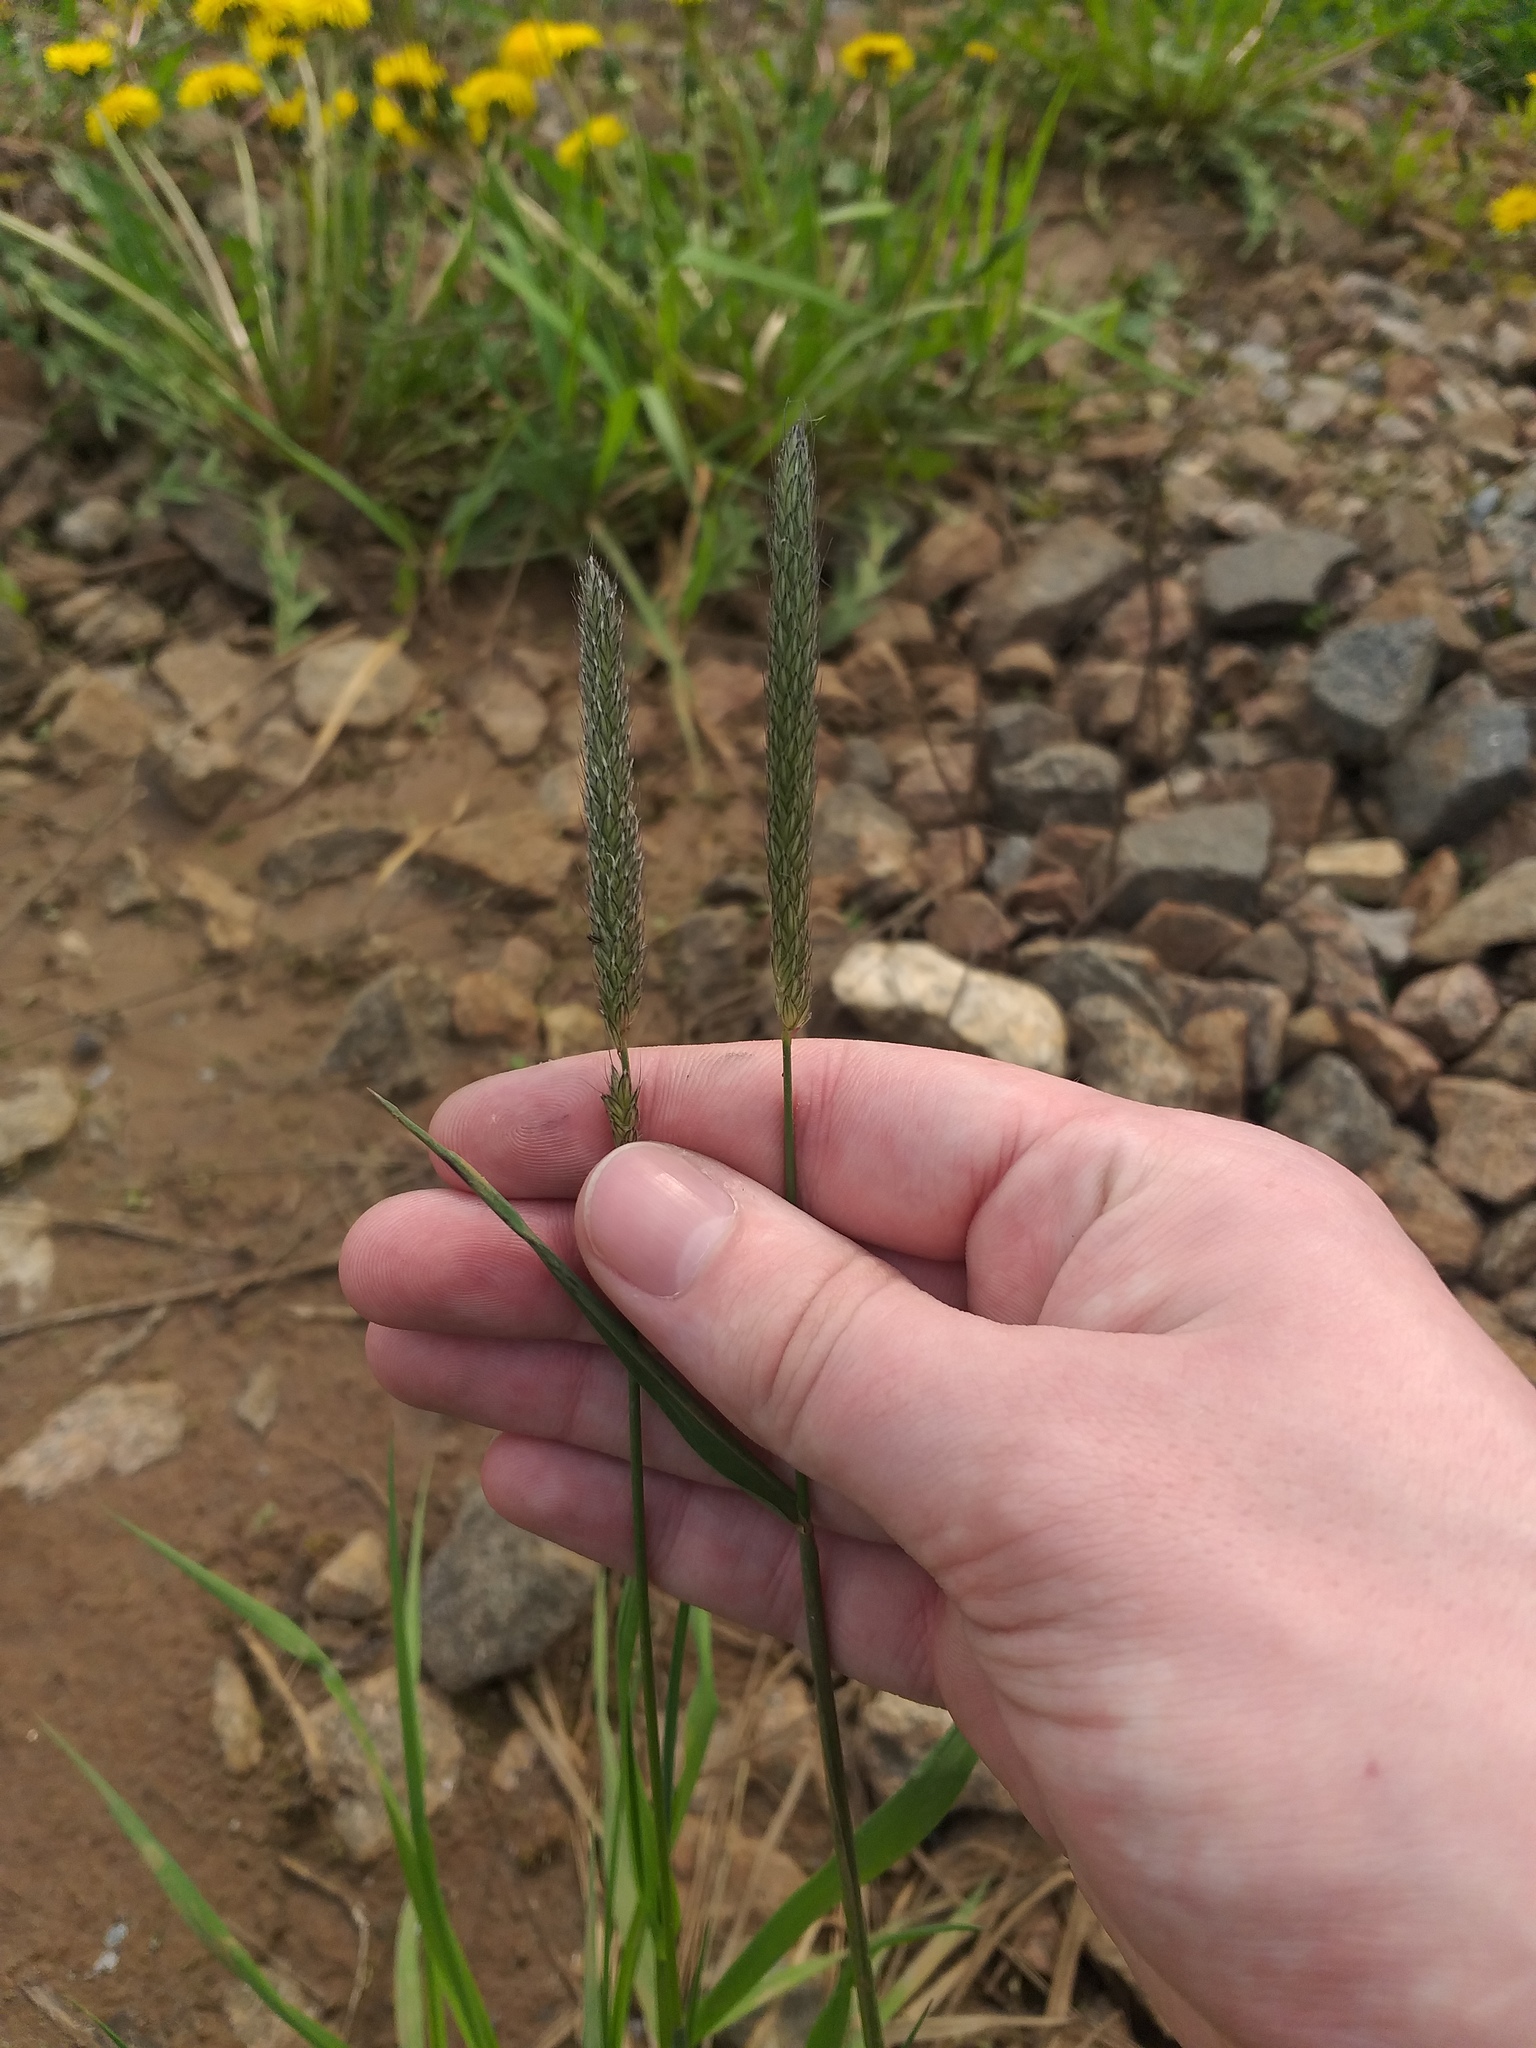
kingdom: Plantae
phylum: Tracheophyta
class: Liliopsida
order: Poales
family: Poaceae
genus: Alopecurus
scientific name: Alopecurus pratensis
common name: Meadow foxtail
